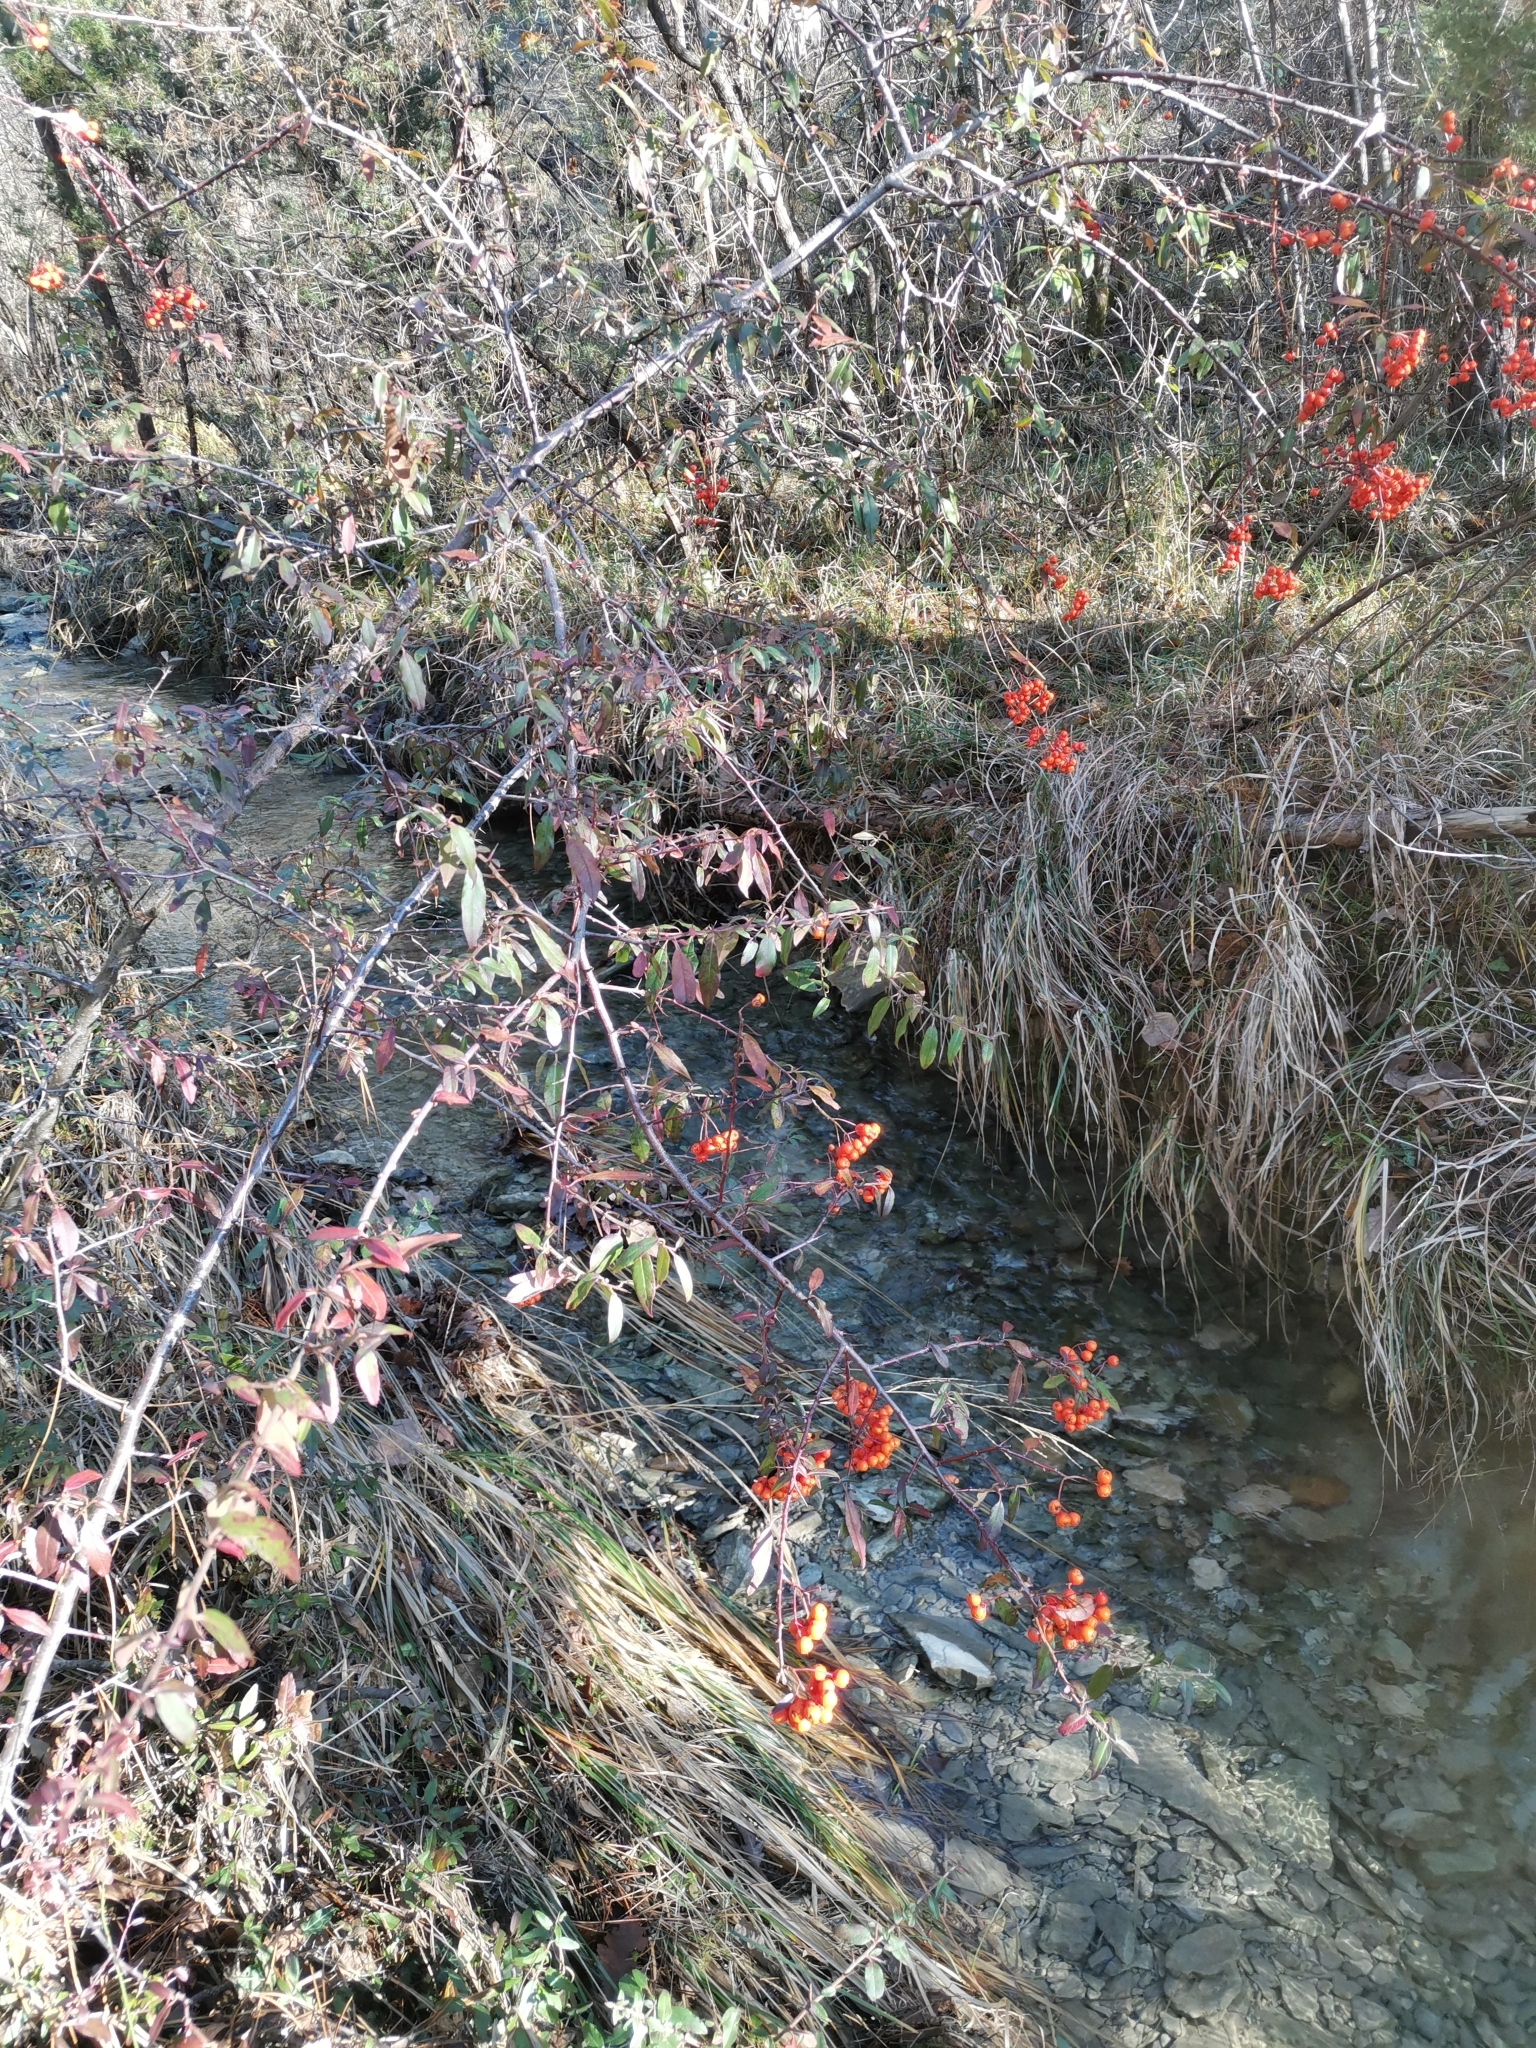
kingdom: Plantae
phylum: Tracheophyta
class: Magnoliopsida
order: Rosales
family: Rosaceae
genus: Pyracantha
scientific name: Pyracantha coccinea
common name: Firethorn
